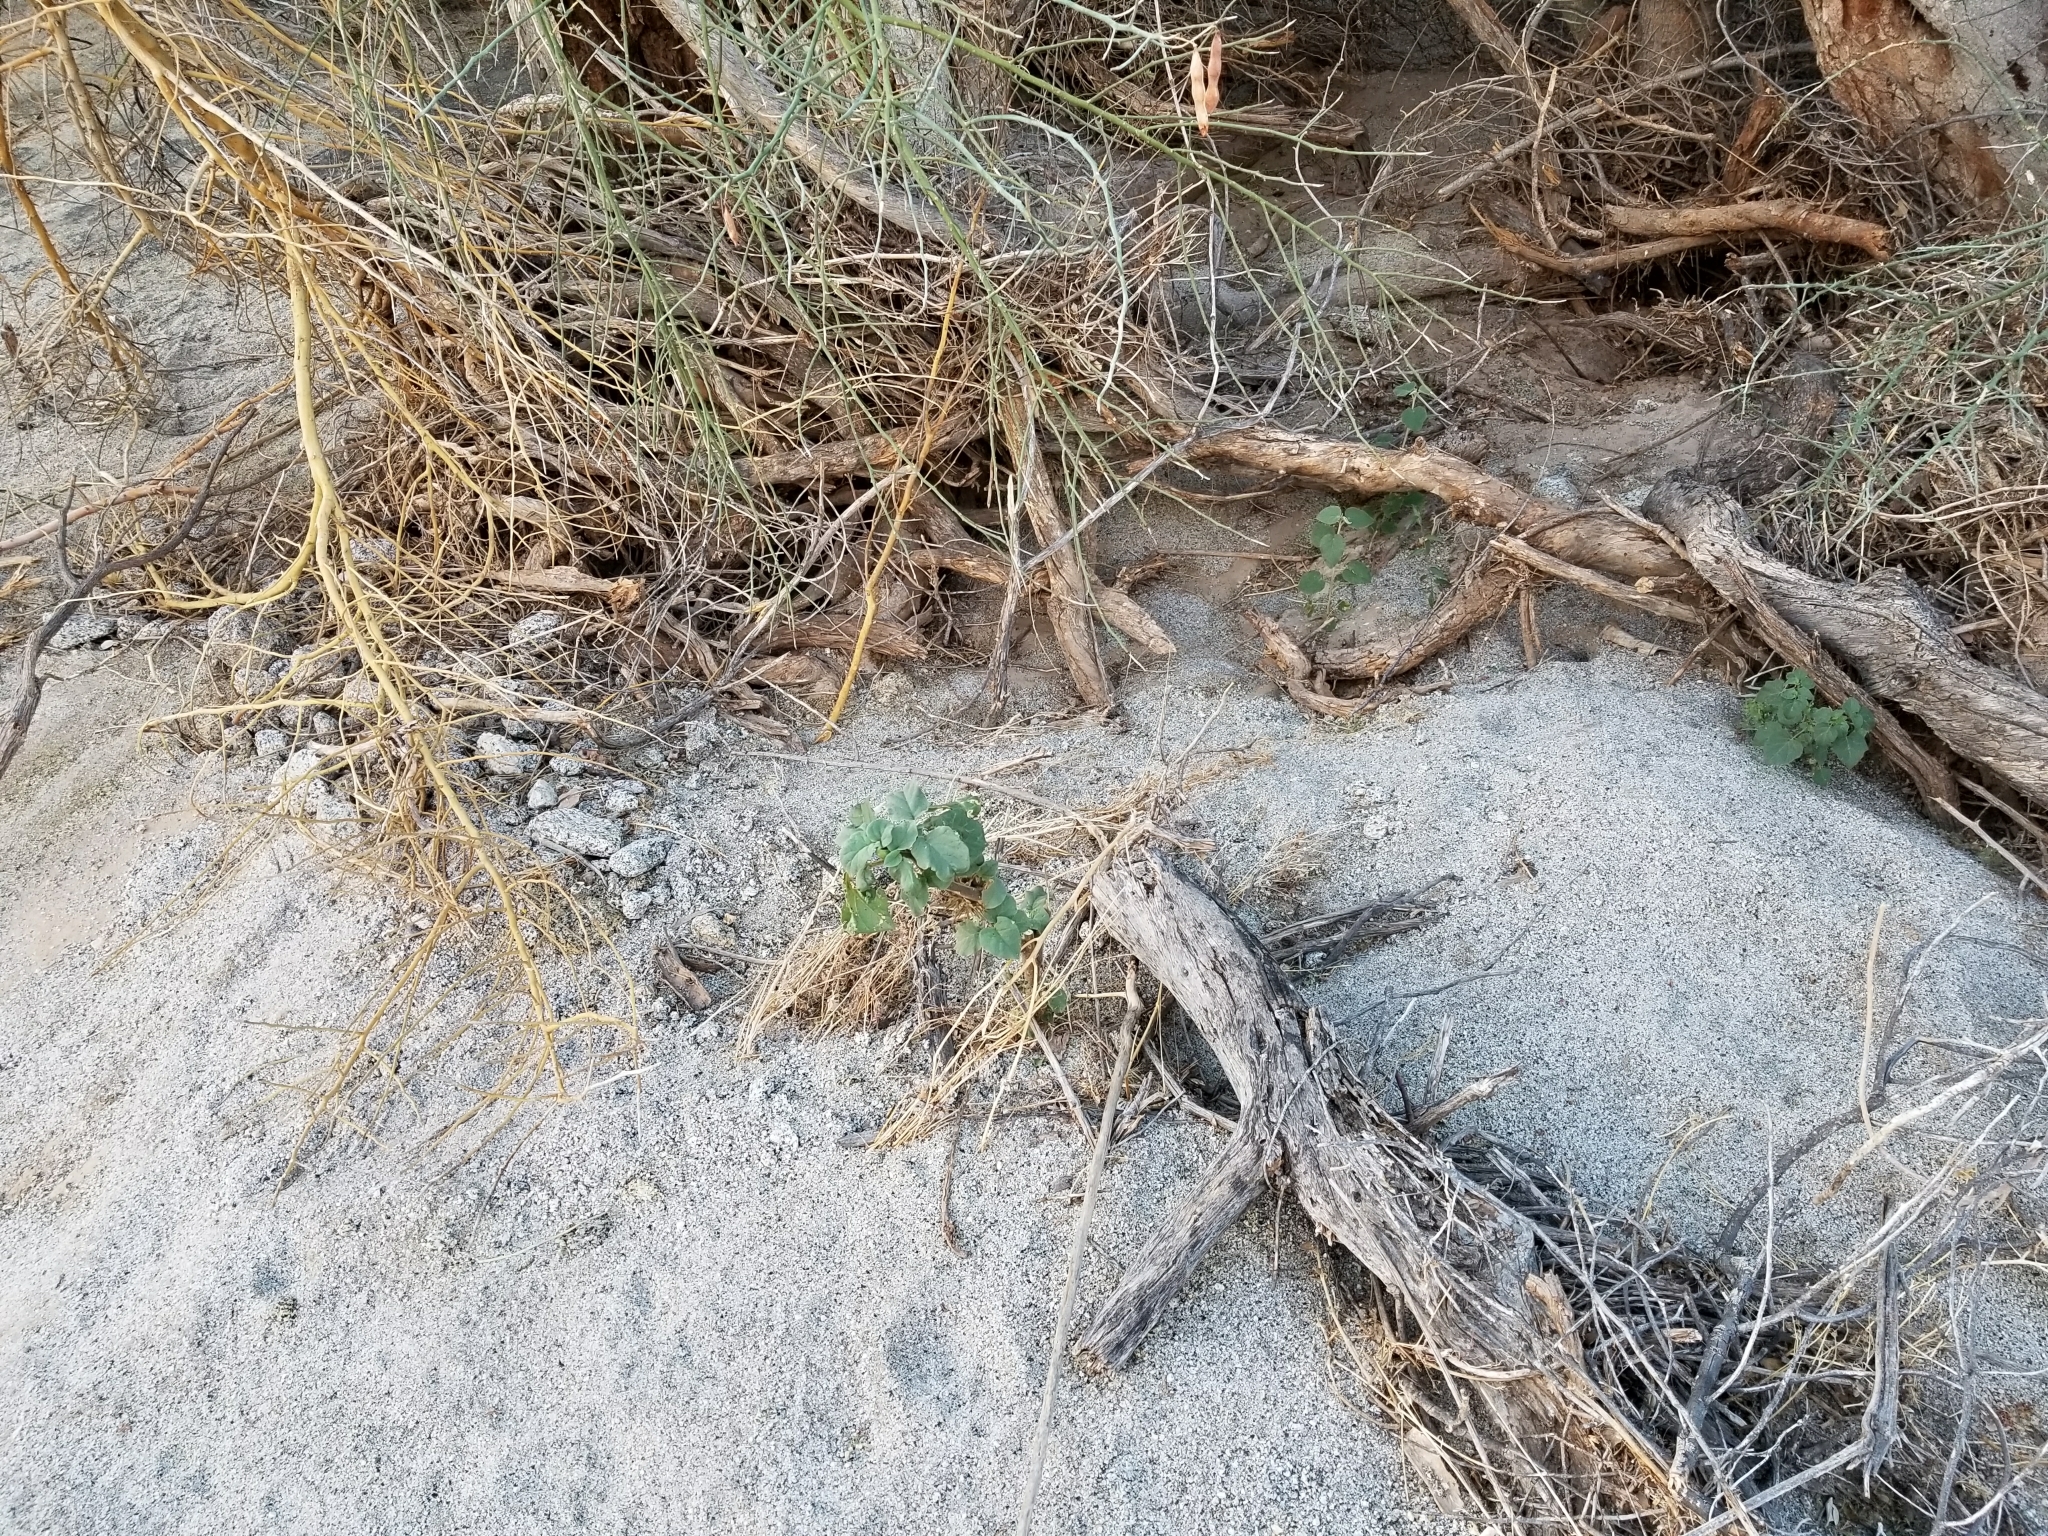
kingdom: Plantae
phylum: Tracheophyta
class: Magnoliopsida
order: Solanales
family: Solanaceae
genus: Datura
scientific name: Datura discolor
